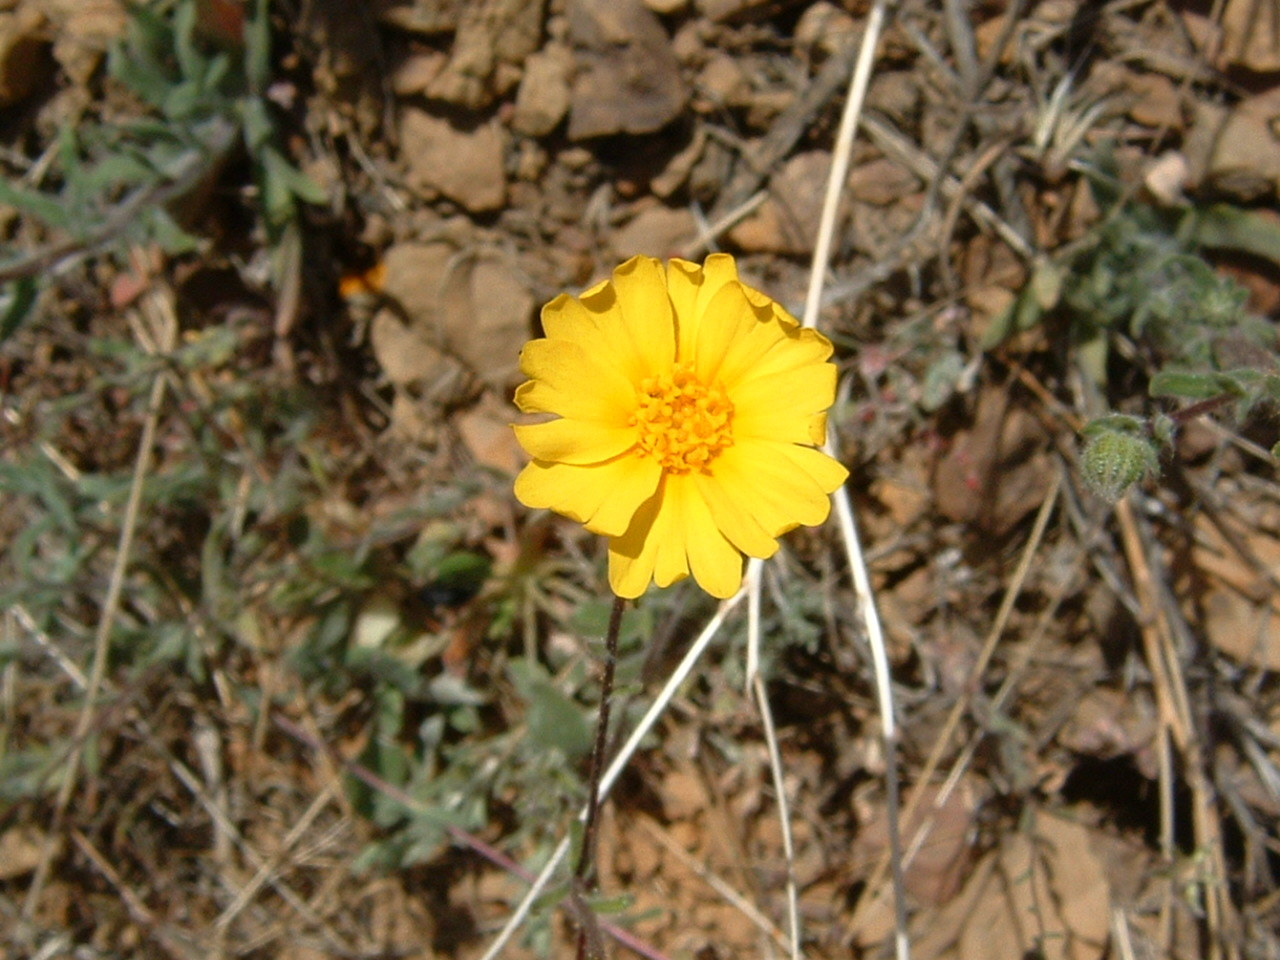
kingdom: Plantae
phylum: Tracheophyta
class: Magnoliopsida
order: Asterales
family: Asteraceae
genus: Madia
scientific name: Madia elegans
